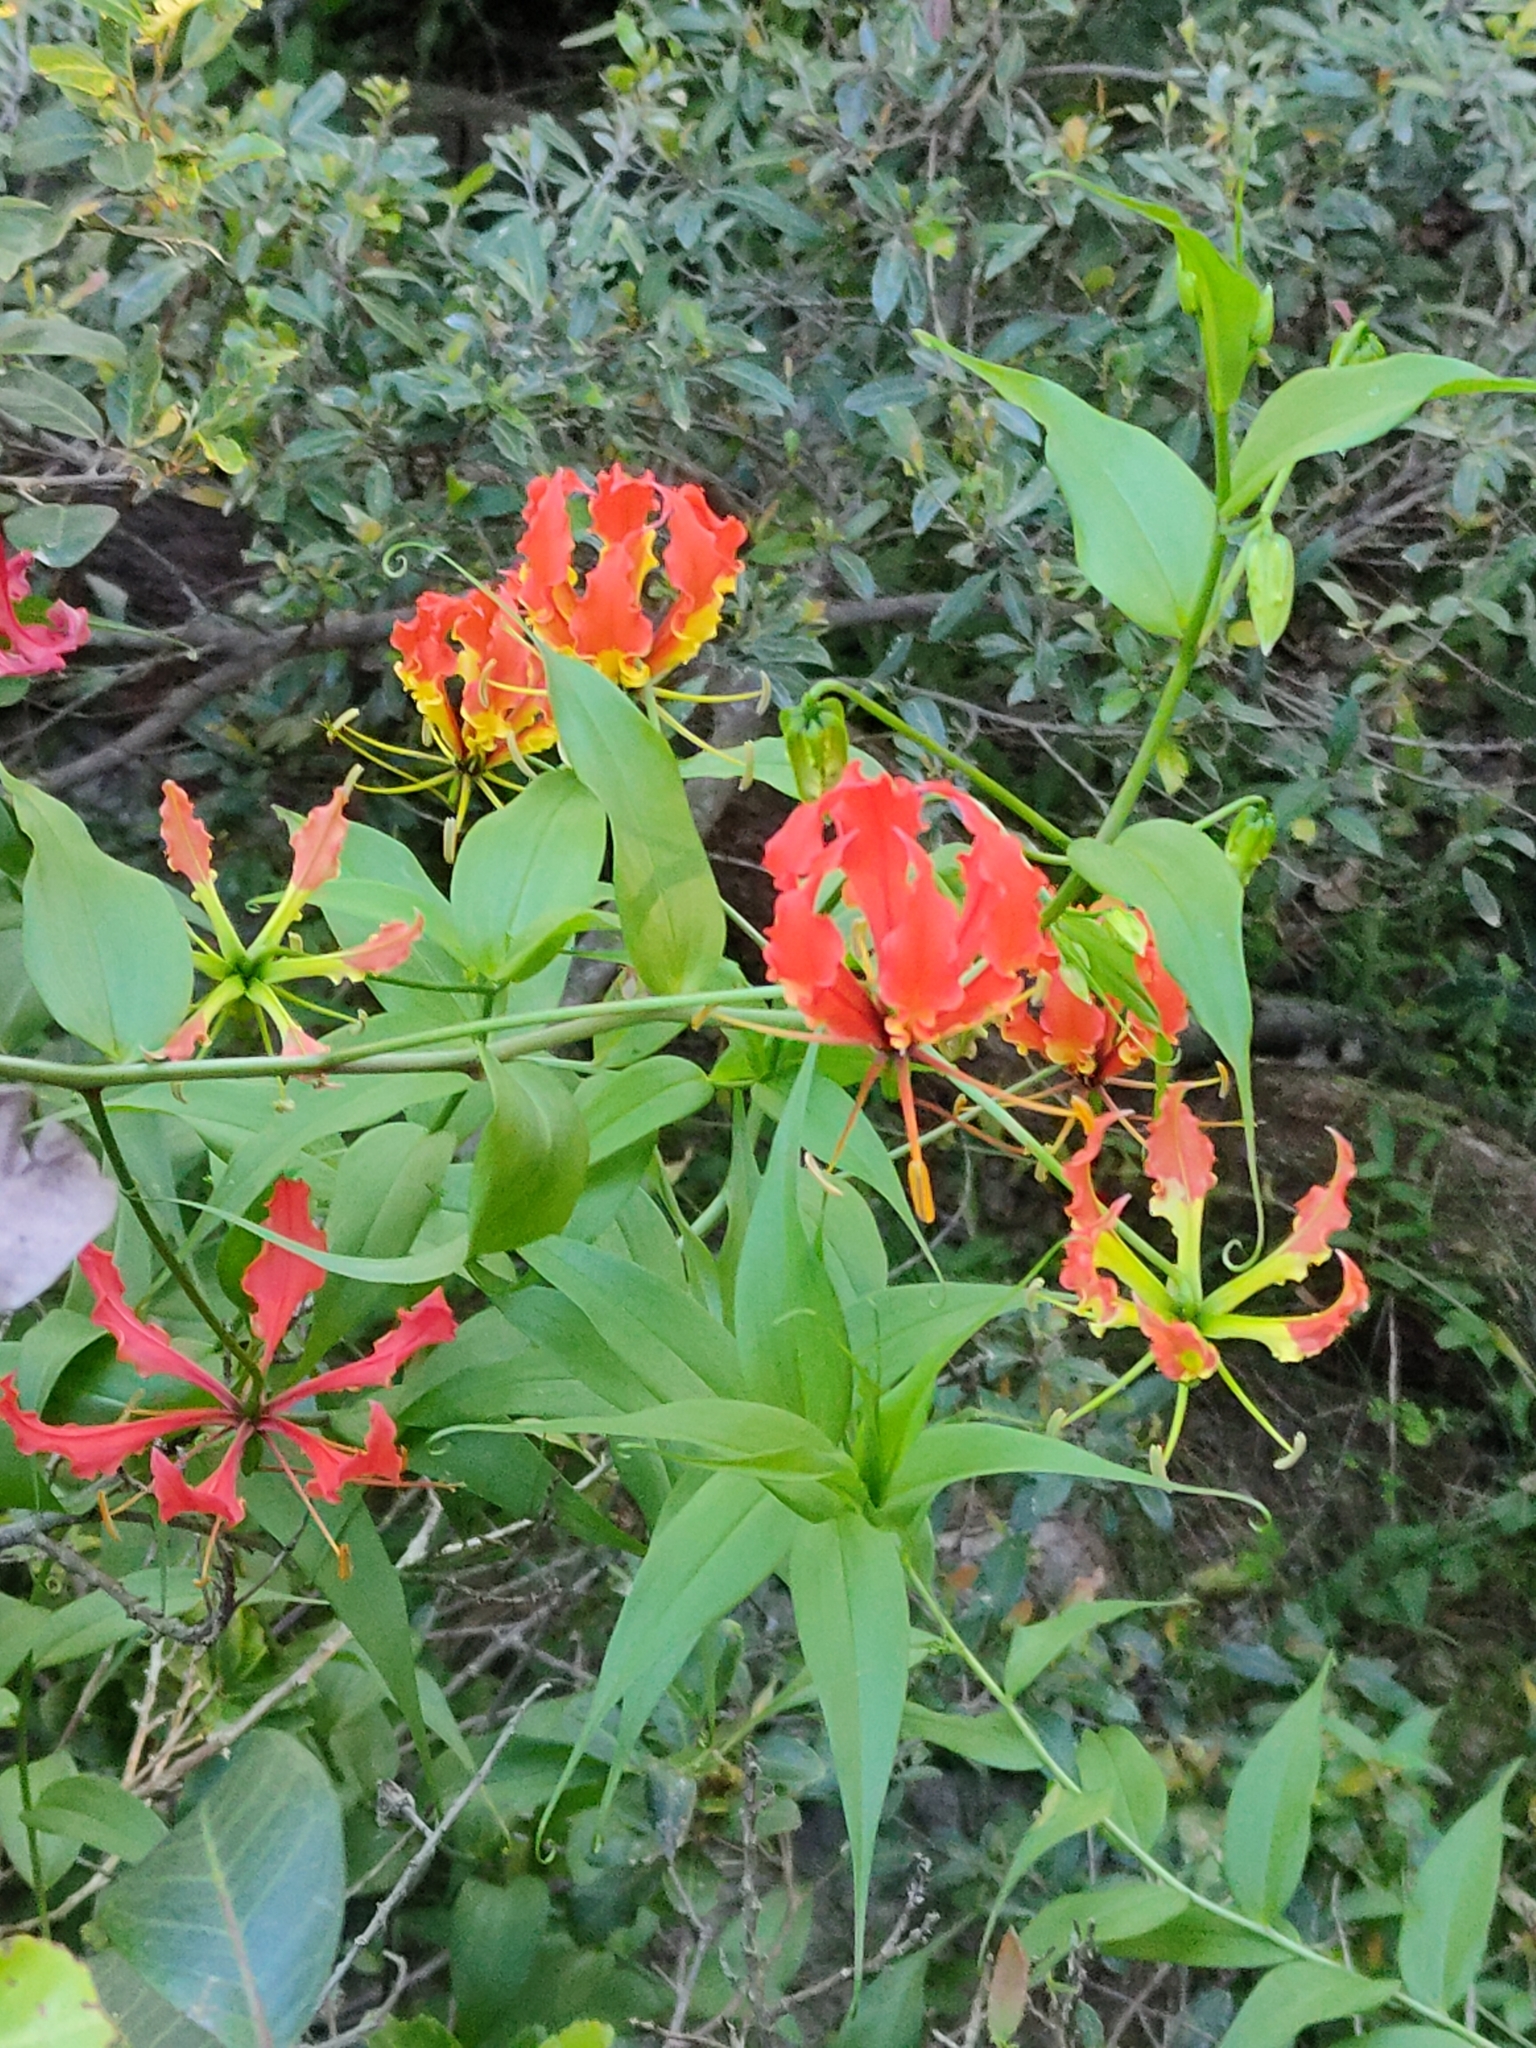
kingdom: Plantae
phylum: Tracheophyta
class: Liliopsida
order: Liliales
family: Colchicaceae
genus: Gloriosa
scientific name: Gloriosa superba
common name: Flame lily
